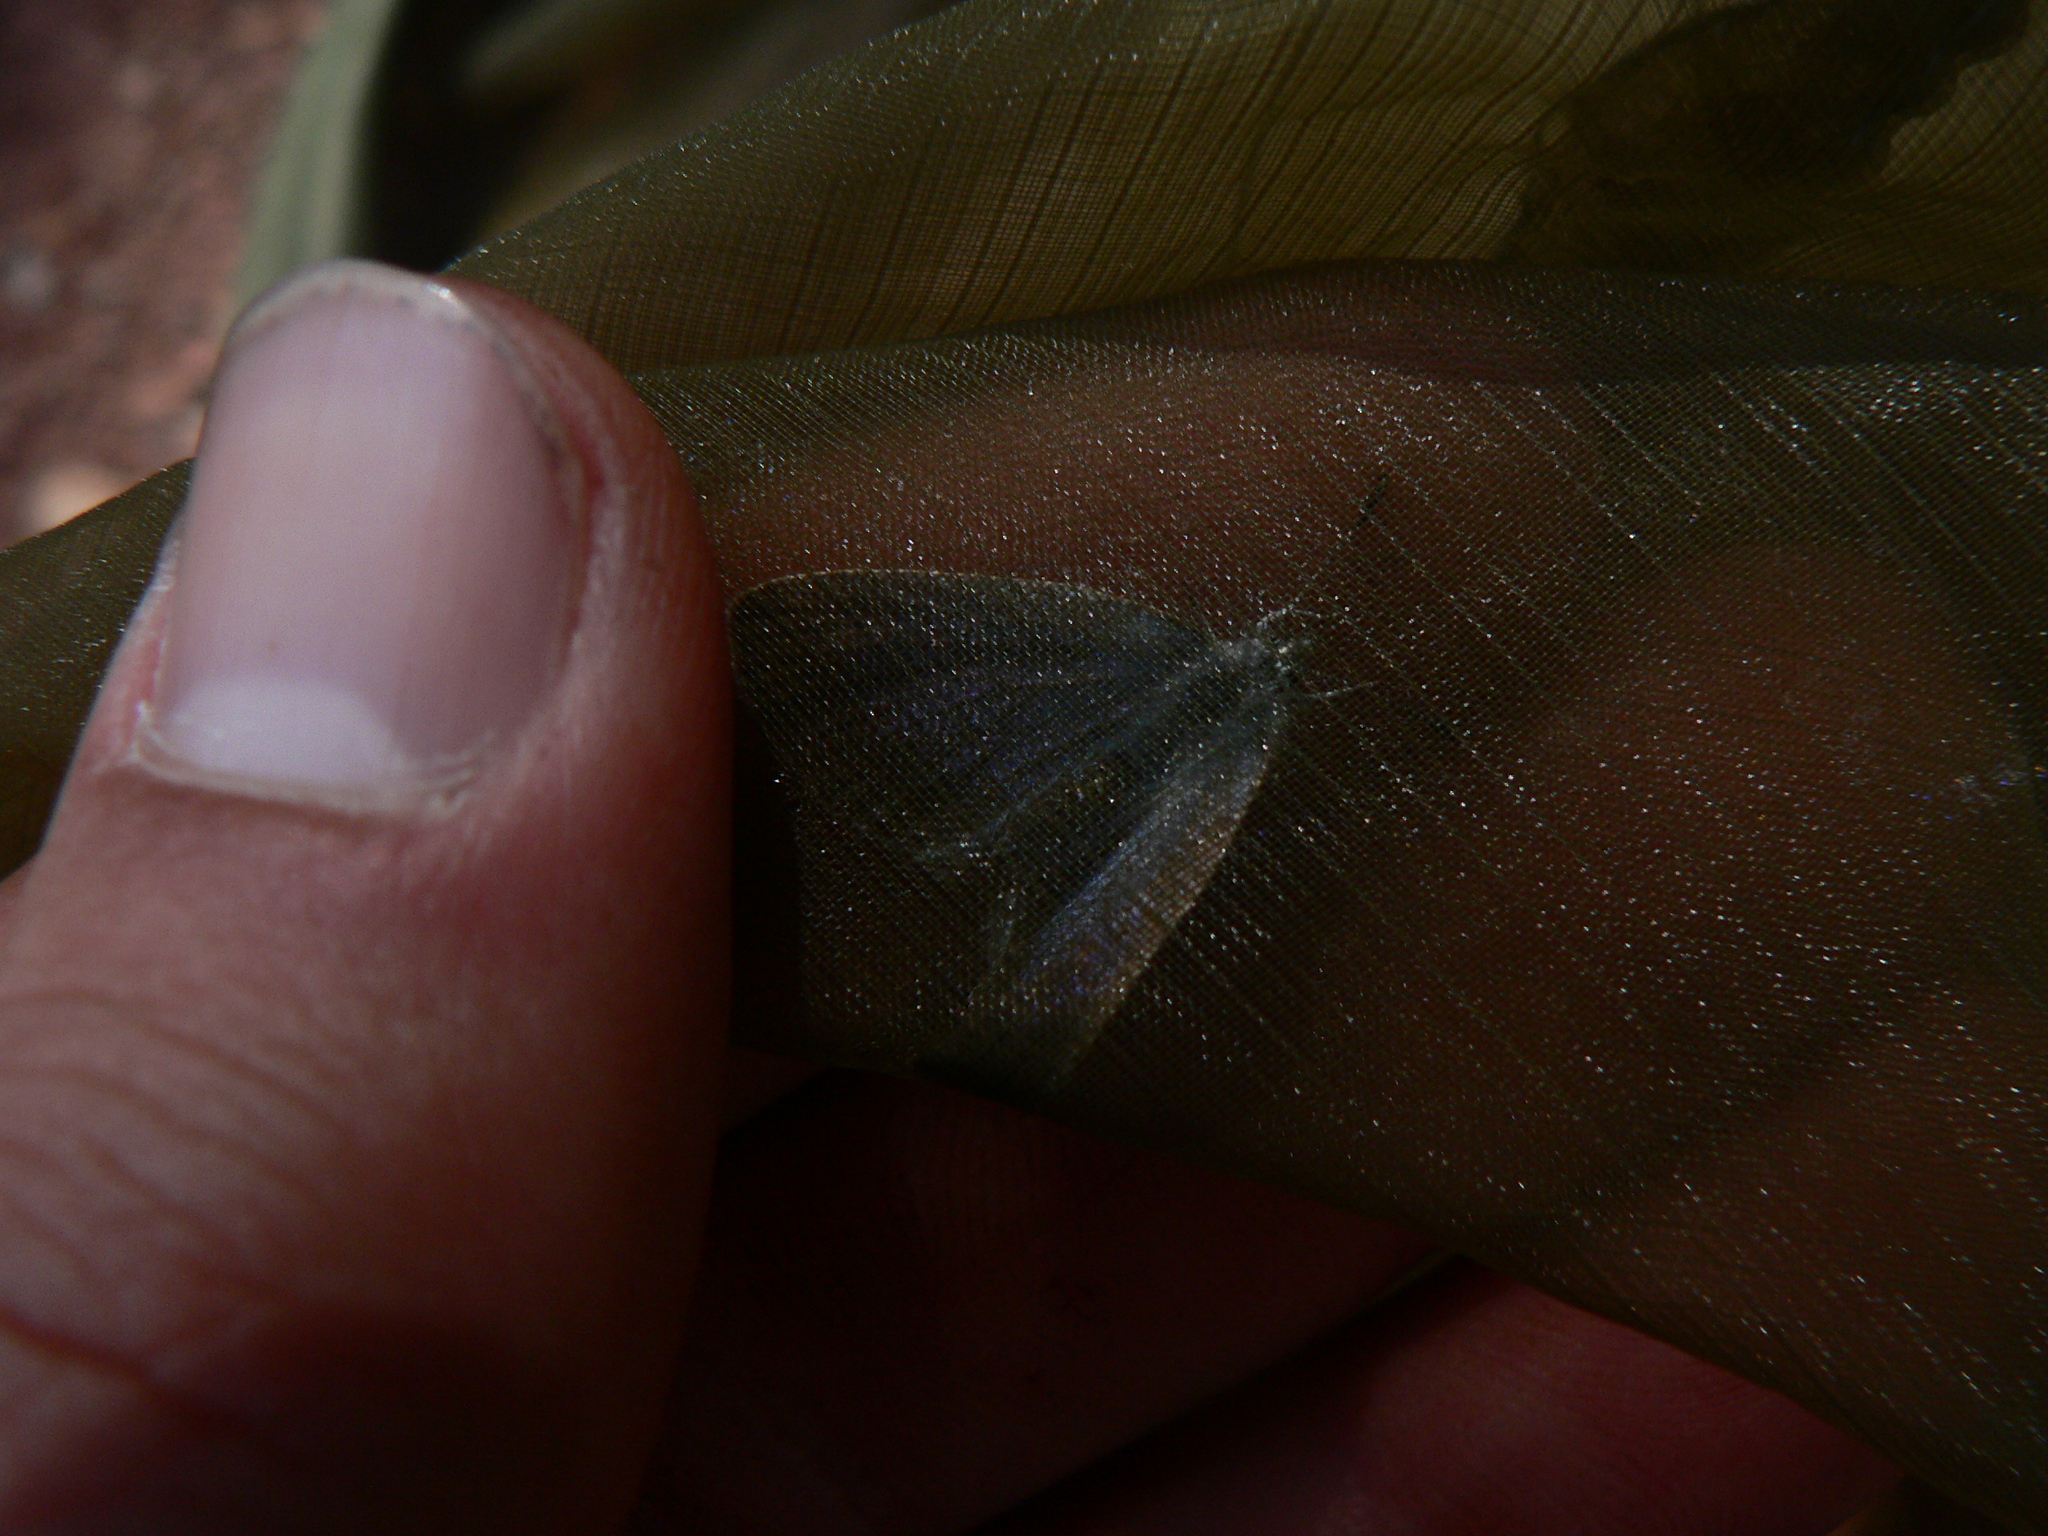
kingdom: Animalia
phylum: Arthropoda
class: Insecta
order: Lepidoptera
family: Lycaenidae
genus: Glaucopsyche
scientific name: Glaucopsyche alexis
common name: Green-underside blue
